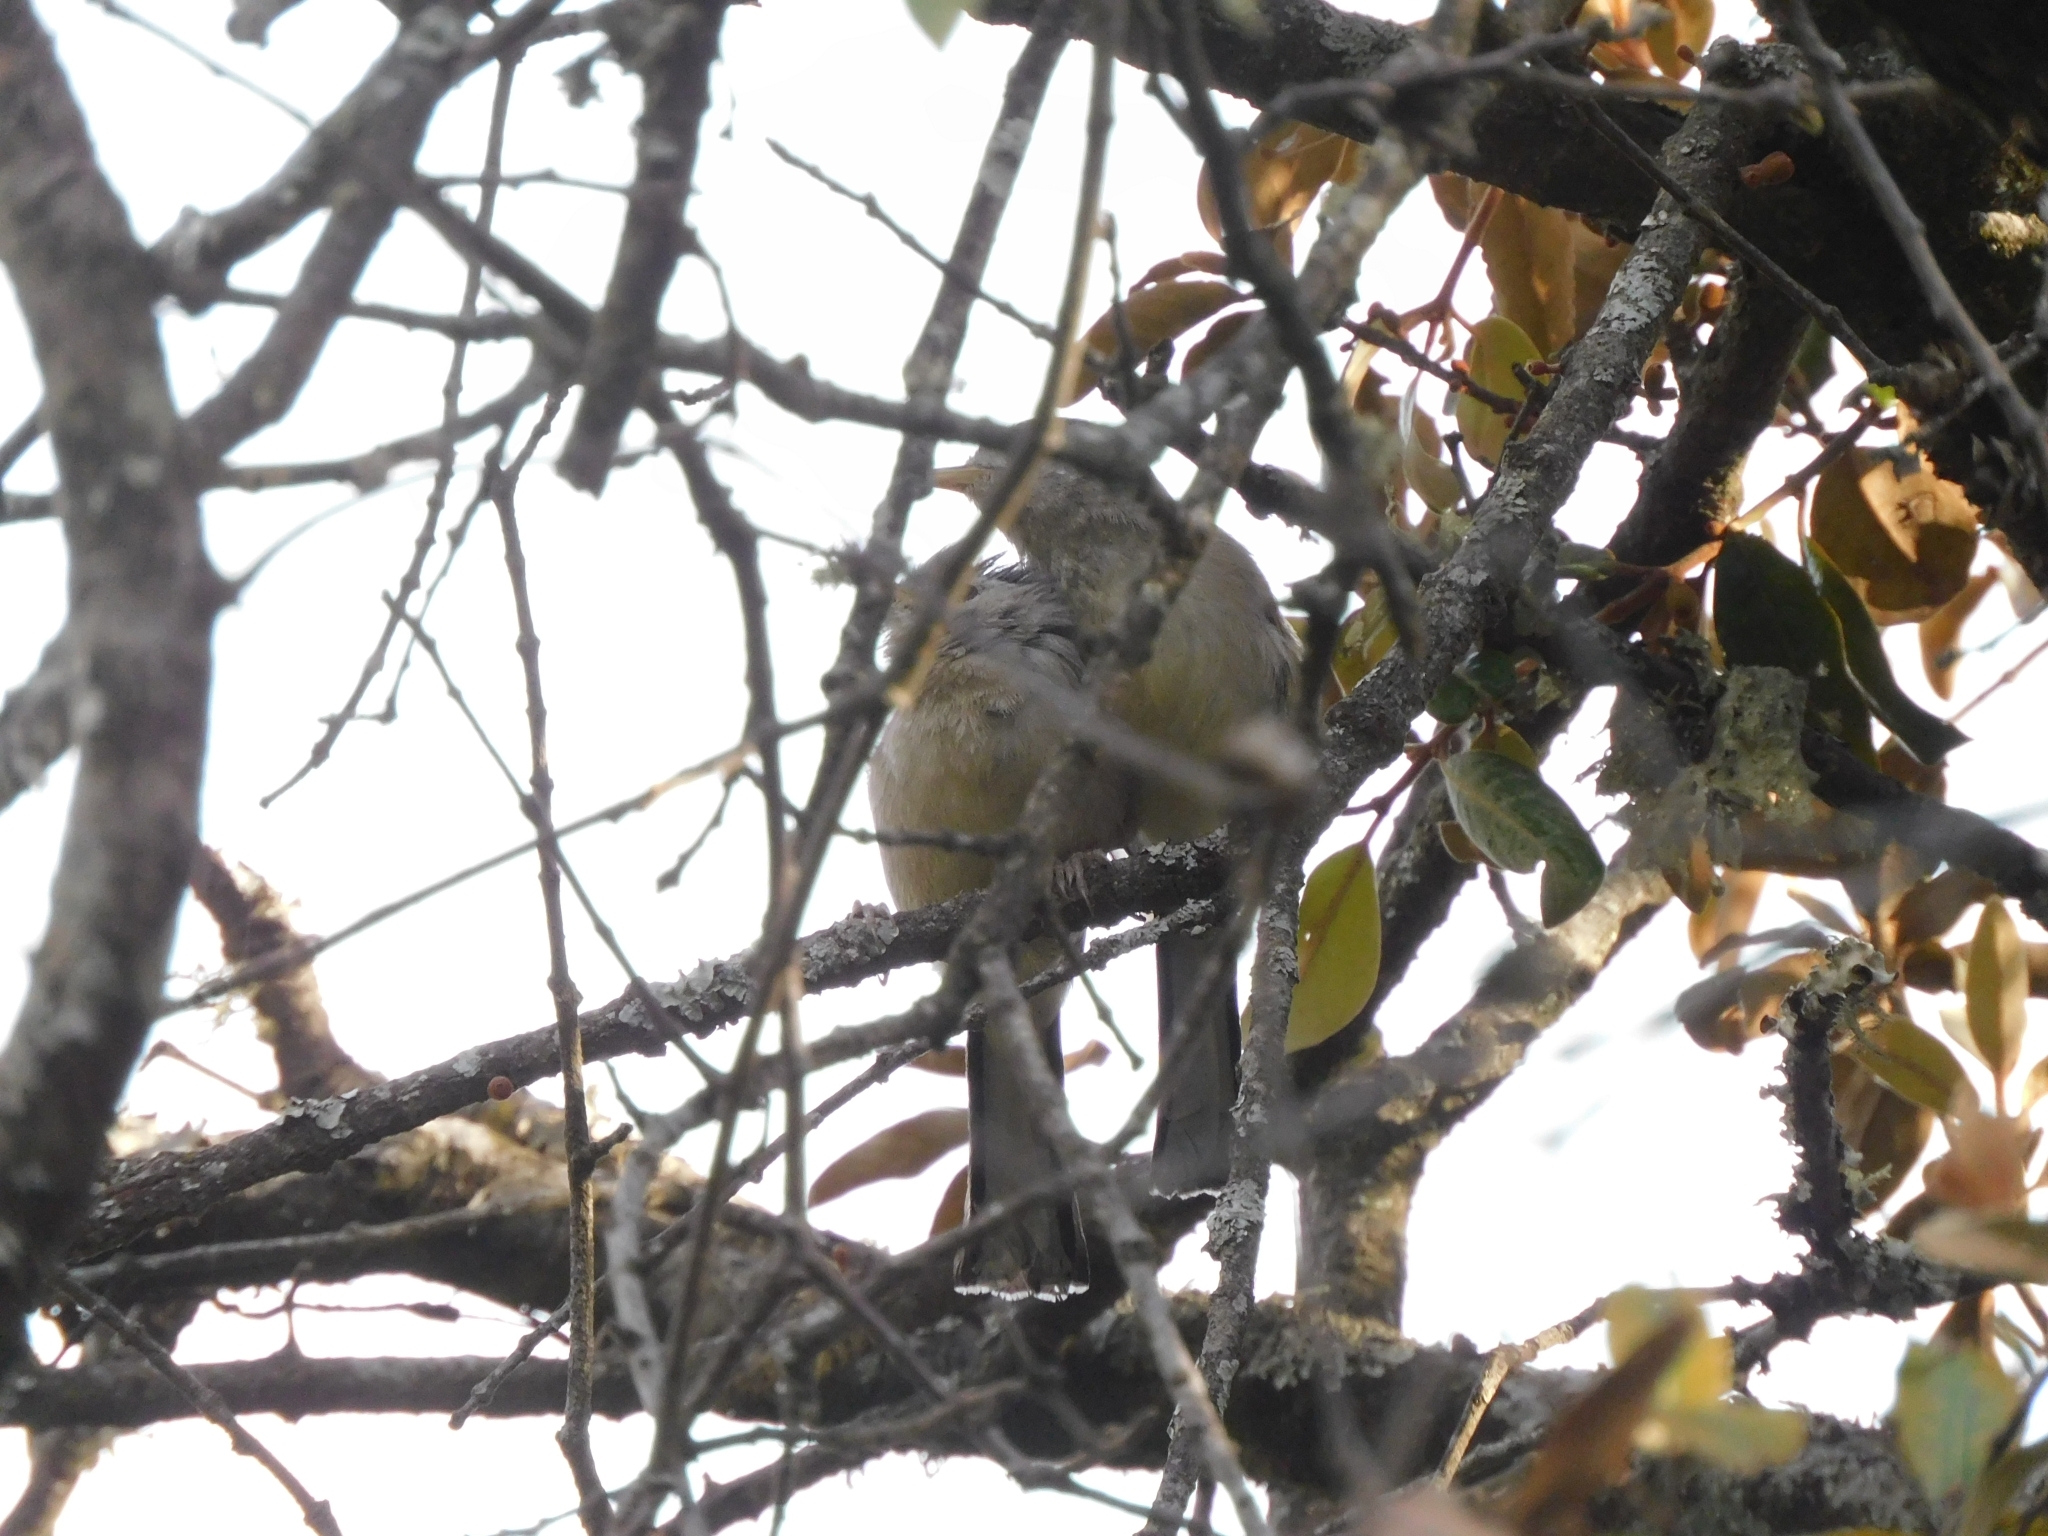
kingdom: Animalia
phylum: Chordata
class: Aves
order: Passeriformes
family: Leiothrichidae
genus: Minla
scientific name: Minla cyanouroptera
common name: Blue-winged minla
